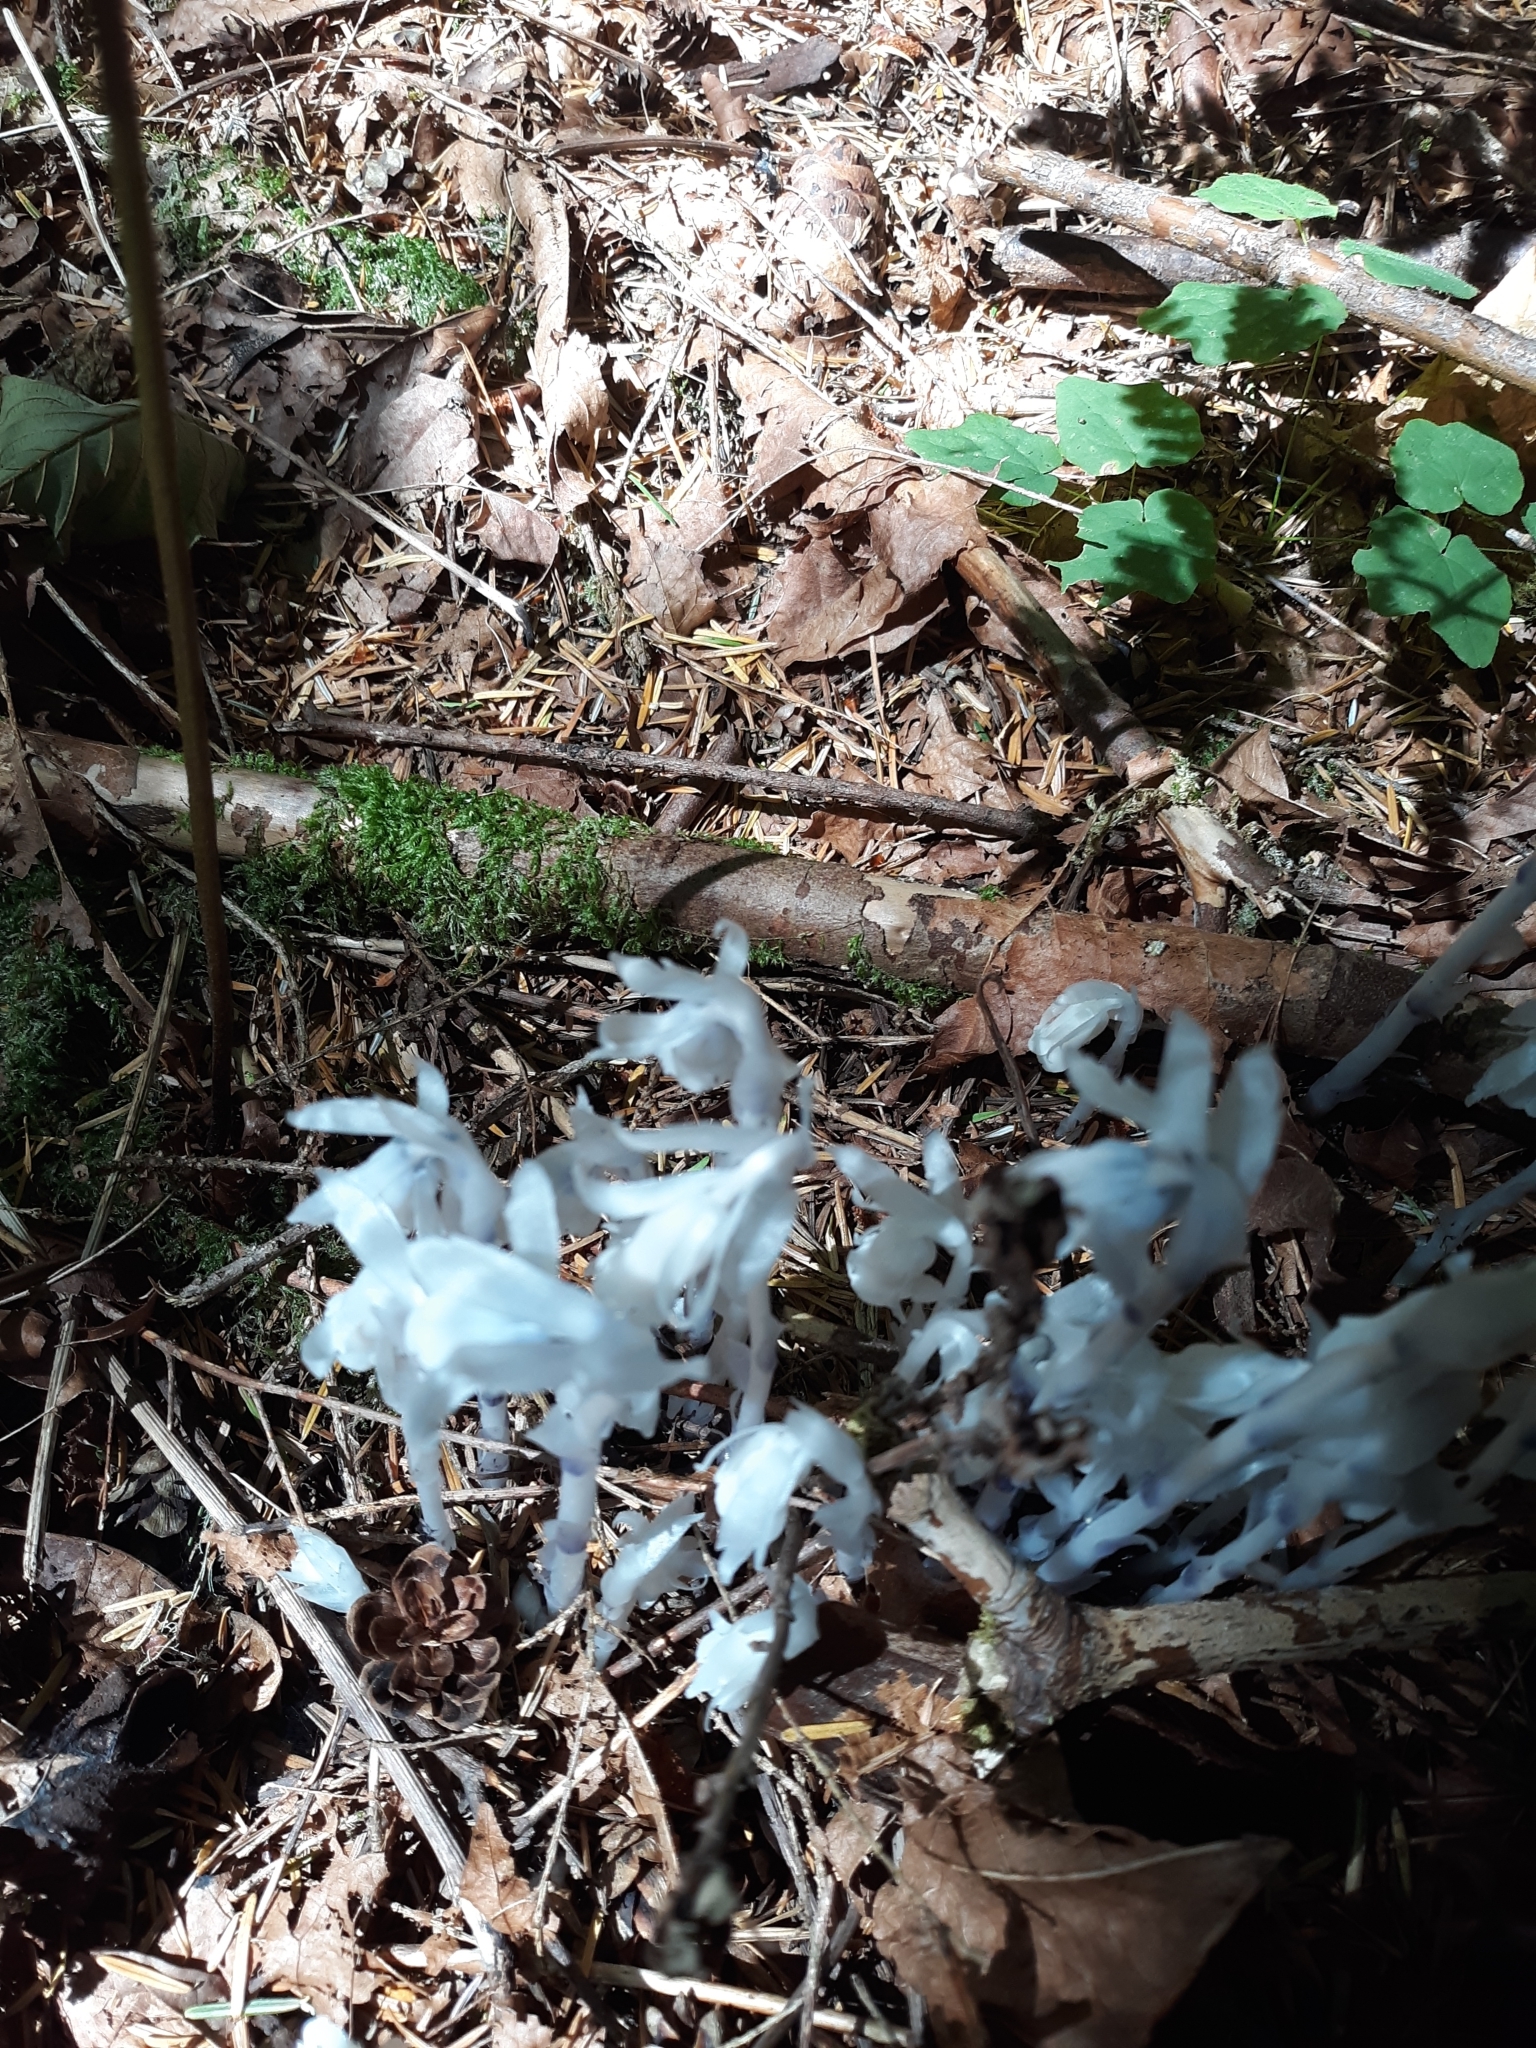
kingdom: Plantae
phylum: Tracheophyta
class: Magnoliopsida
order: Ericales
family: Ericaceae
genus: Monotropa
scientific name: Monotropa uniflora
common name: Convulsion root
